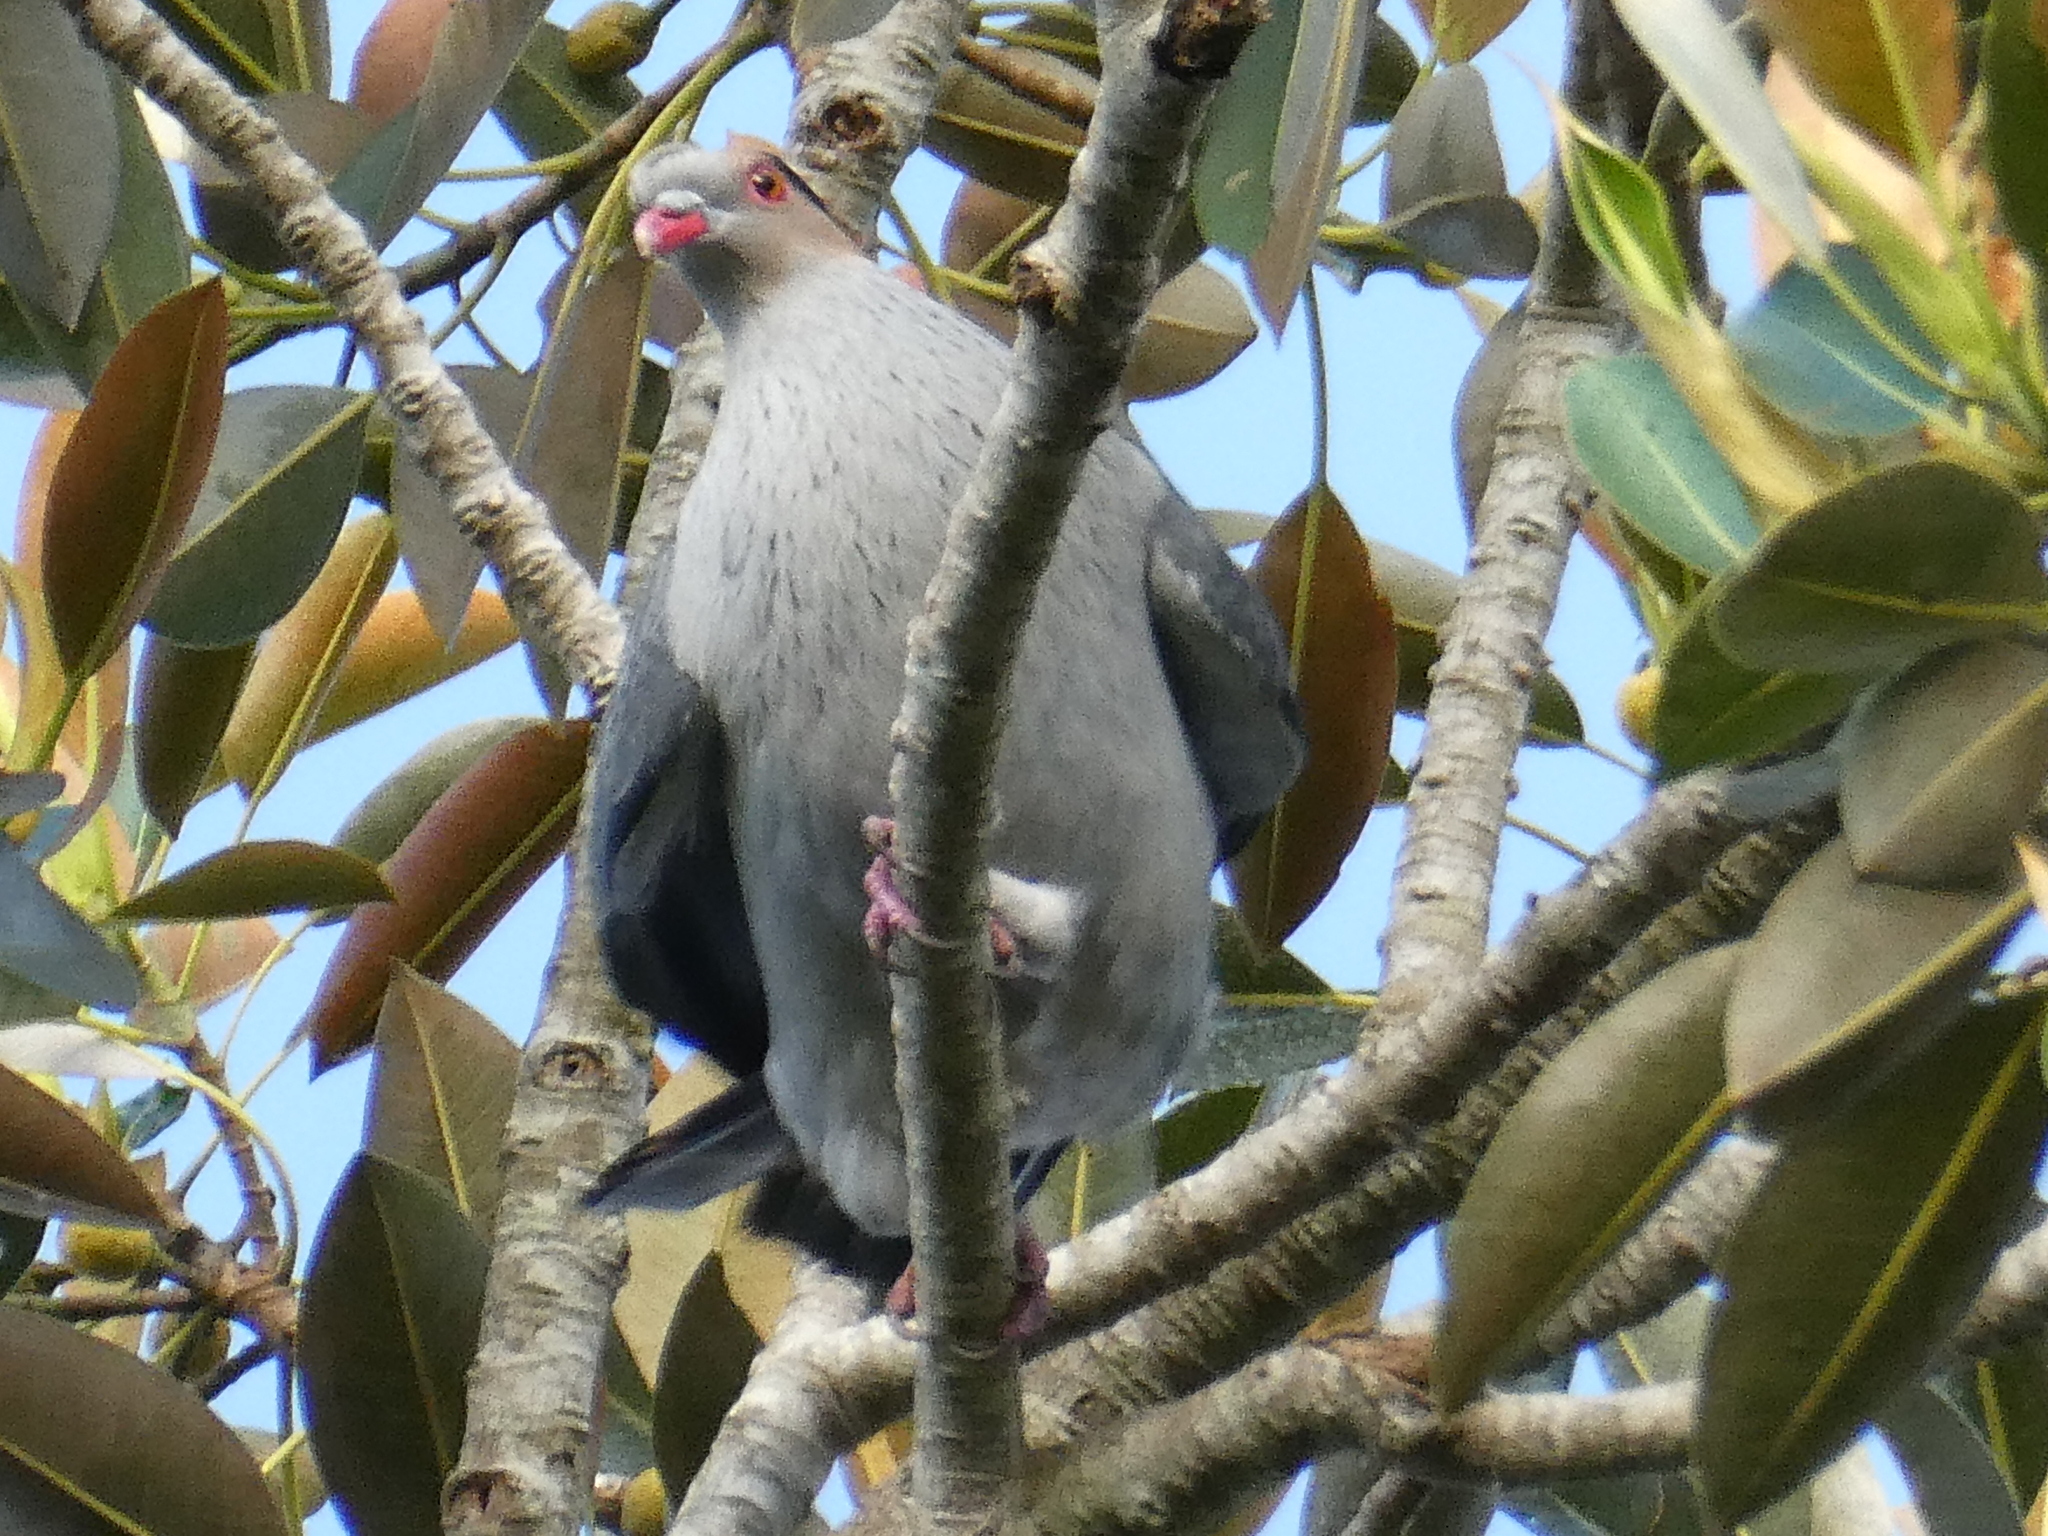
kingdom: Animalia
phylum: Chordata
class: Aves
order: Columbiformes
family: Columbidae
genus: Lopholaimus
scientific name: Lopholaimus antarcticus
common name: Topknot pigeon
